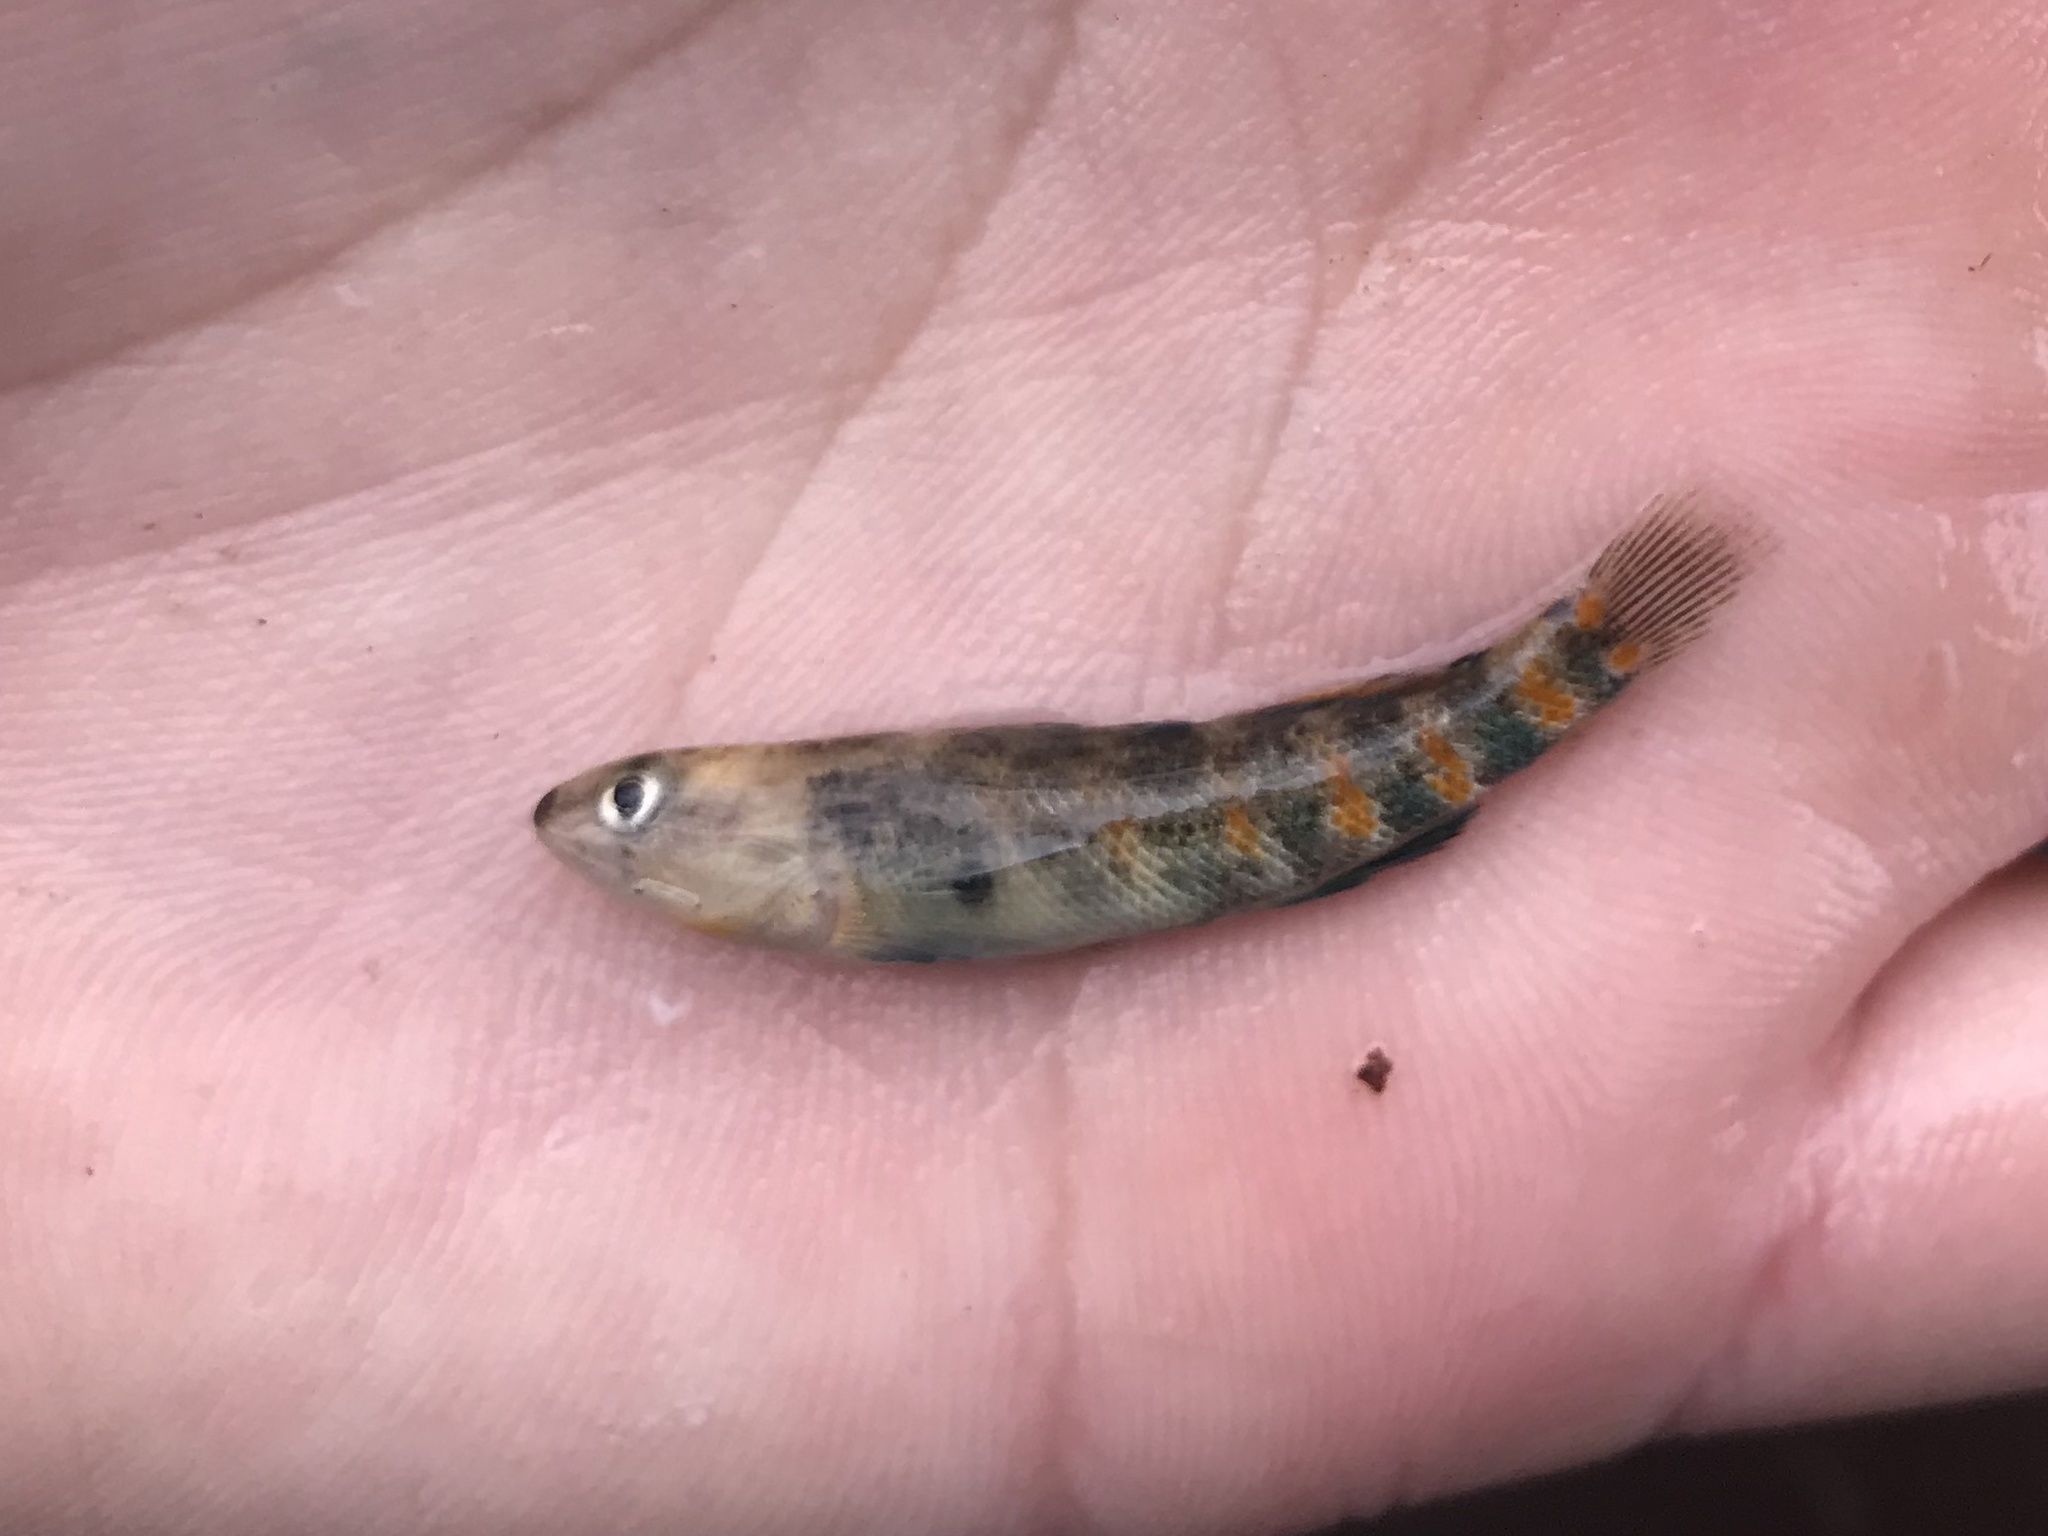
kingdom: Animalia
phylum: Chordata
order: Perciformes
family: Percidae
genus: Etheostoma
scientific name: Etheostoma spectabile
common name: Orangethroat darter
